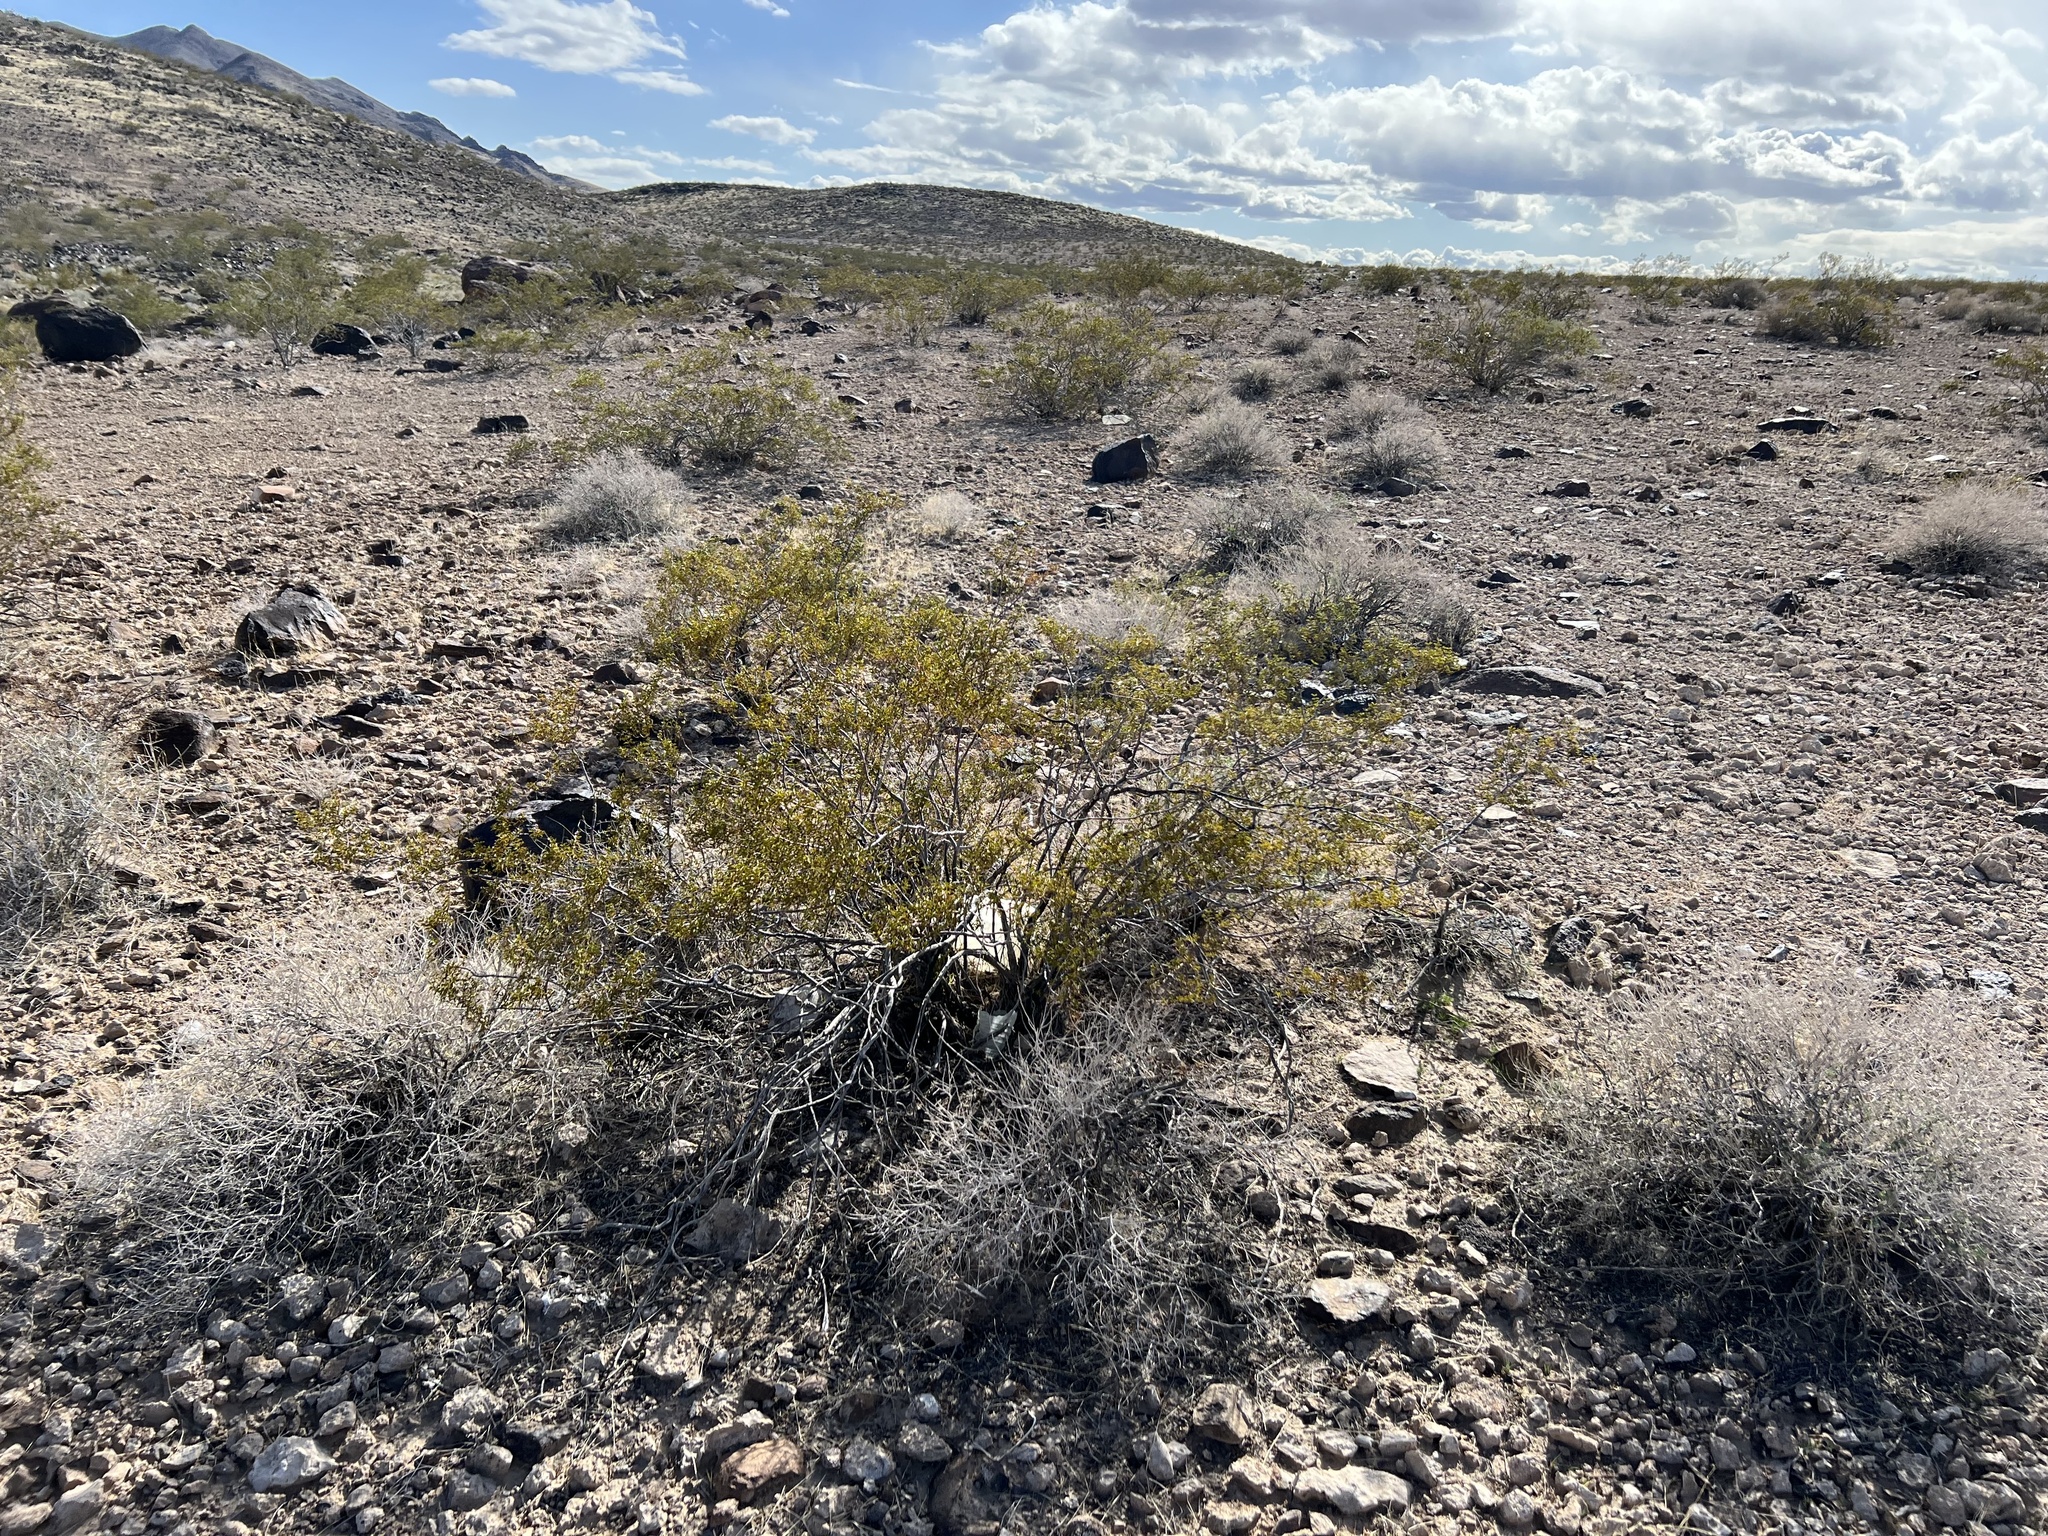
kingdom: Plantae
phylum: Tracheophyta
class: Magnoliopsida
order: Zygophyllales
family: Zygophyllaceae
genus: Larrea
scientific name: Larrea tridentata
